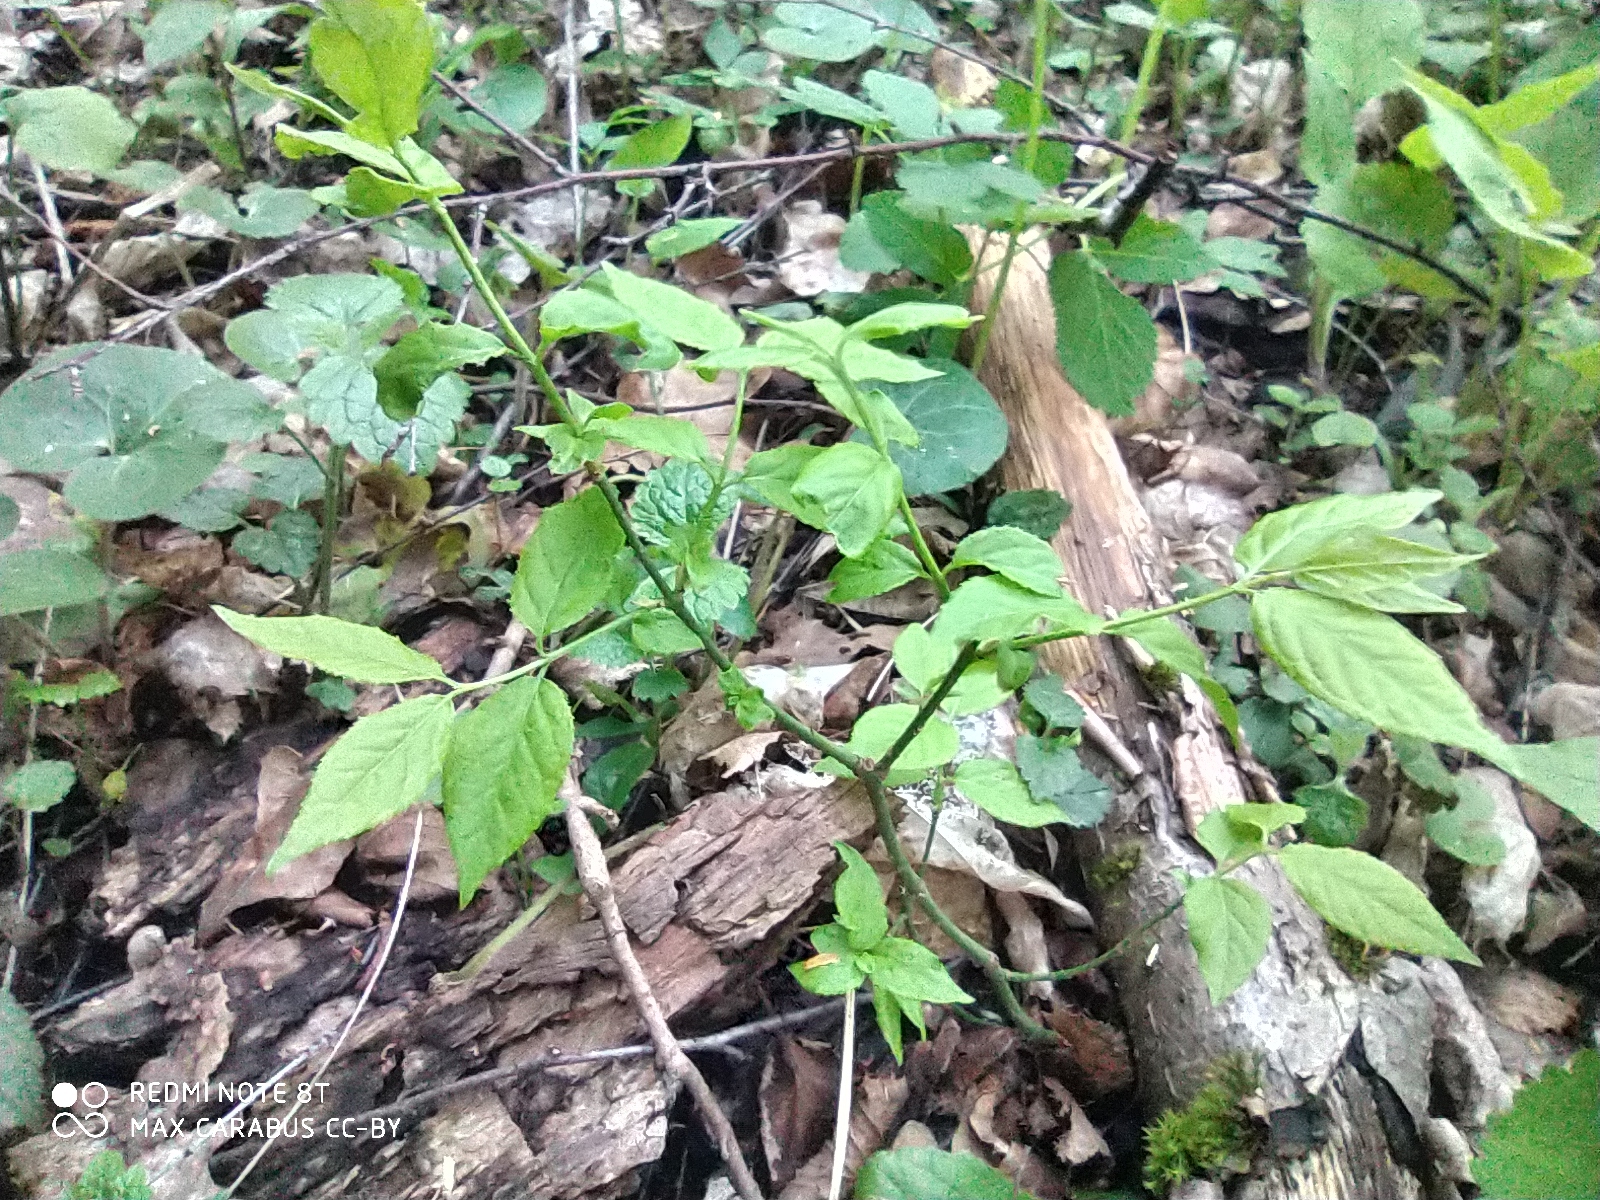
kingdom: Plantae
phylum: Tracheophyta
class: Magnoliopsida
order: Celastrales
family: Celastraceae
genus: Euonymus
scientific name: Euonymus europaeus
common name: Spindle
